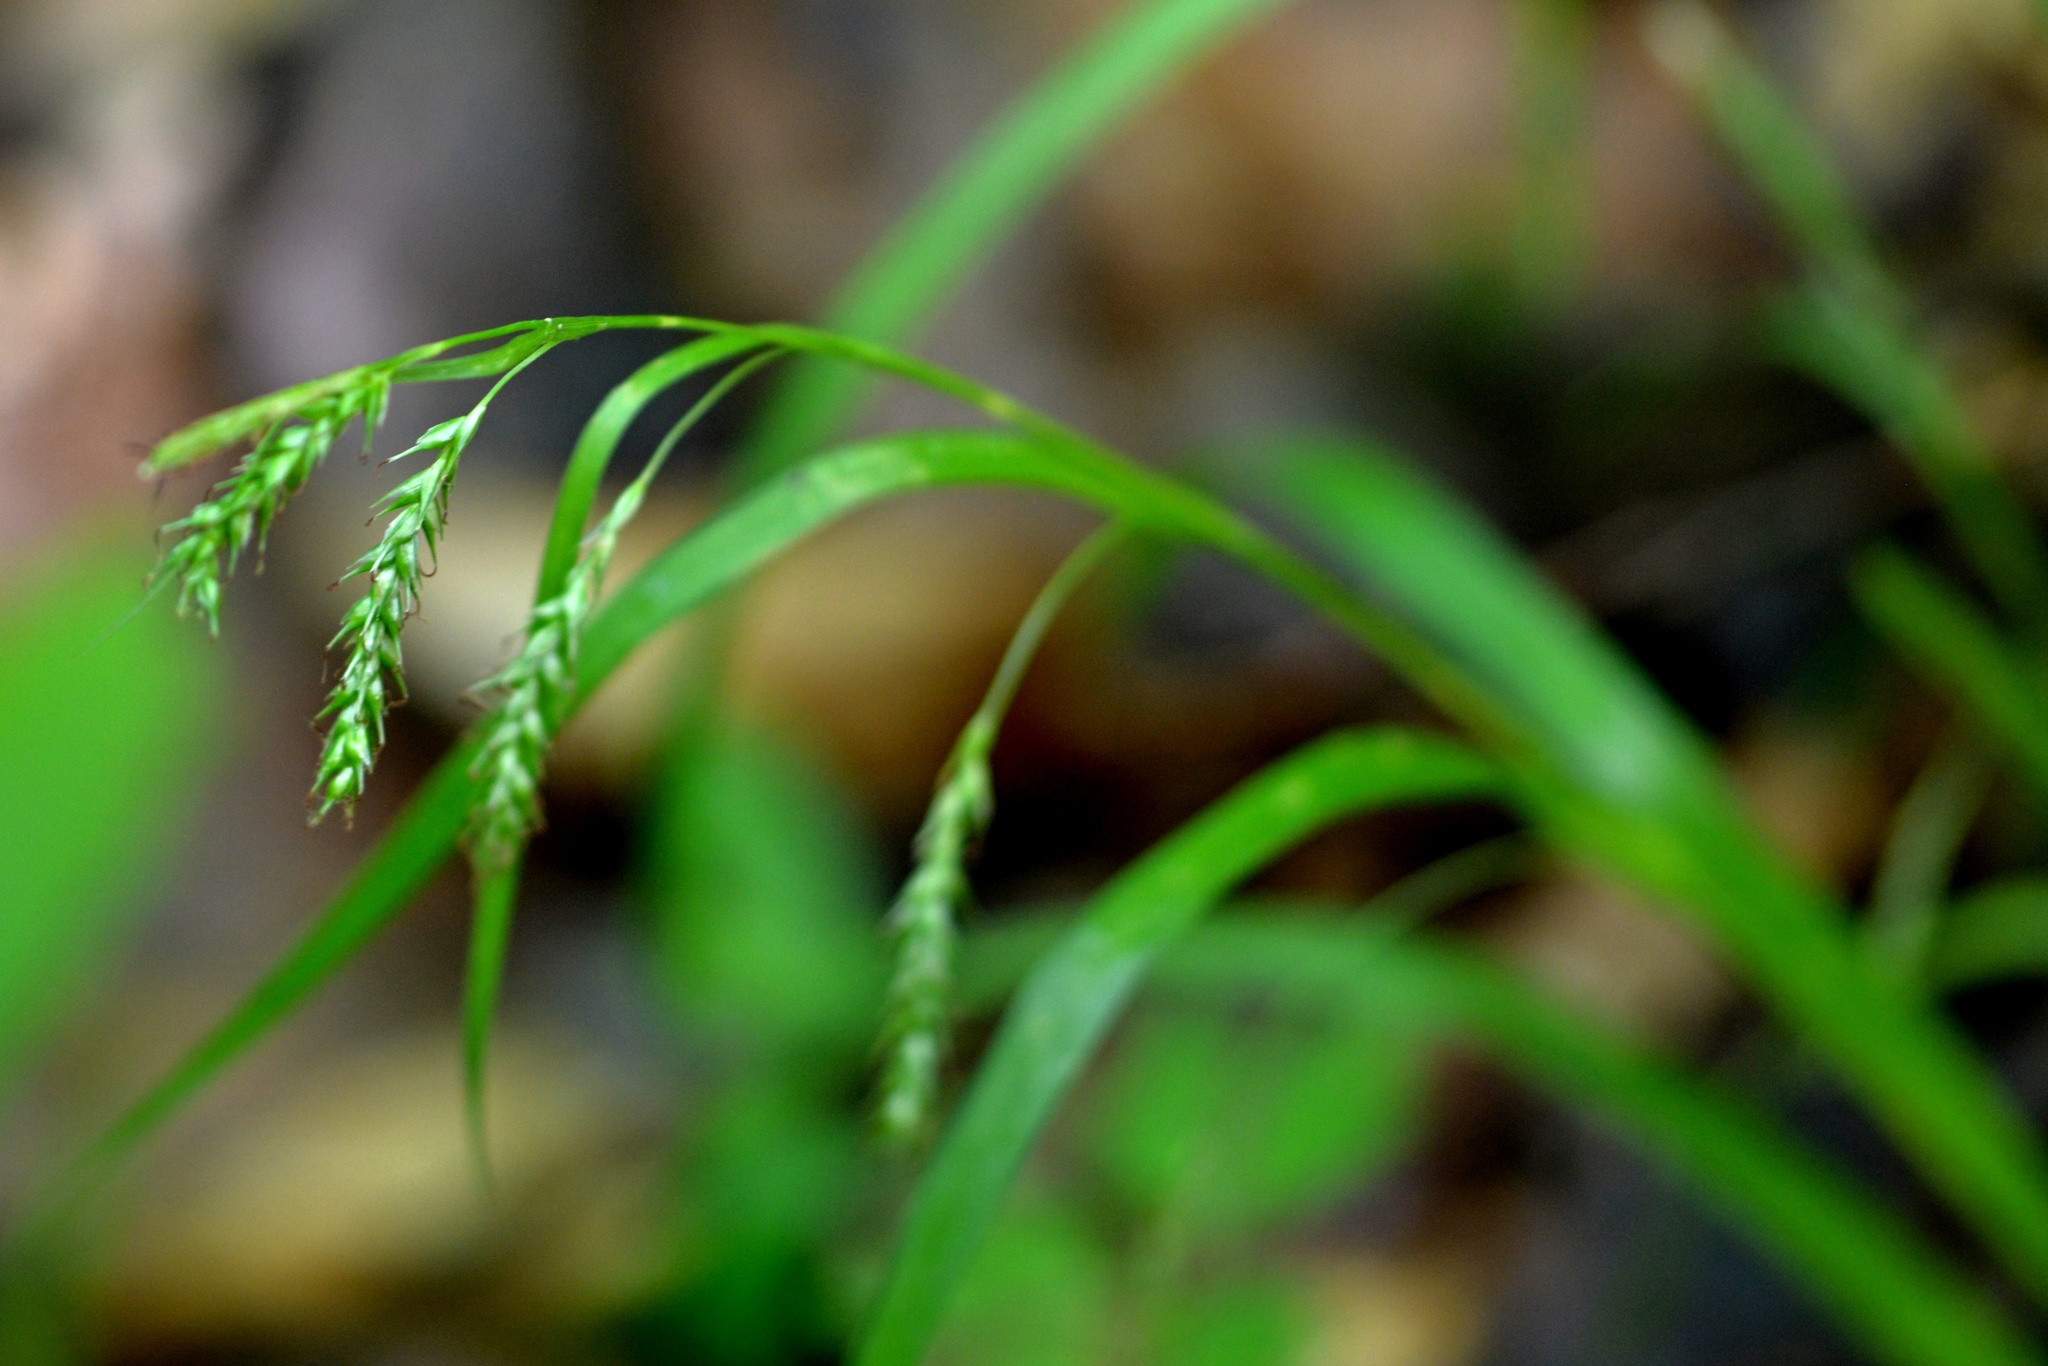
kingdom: Plantae
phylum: Tracheophyta
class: Liliopsida
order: Poales
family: Cyperaceae
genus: Carex
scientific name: Carex sylvatica
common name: Wood-sedge
